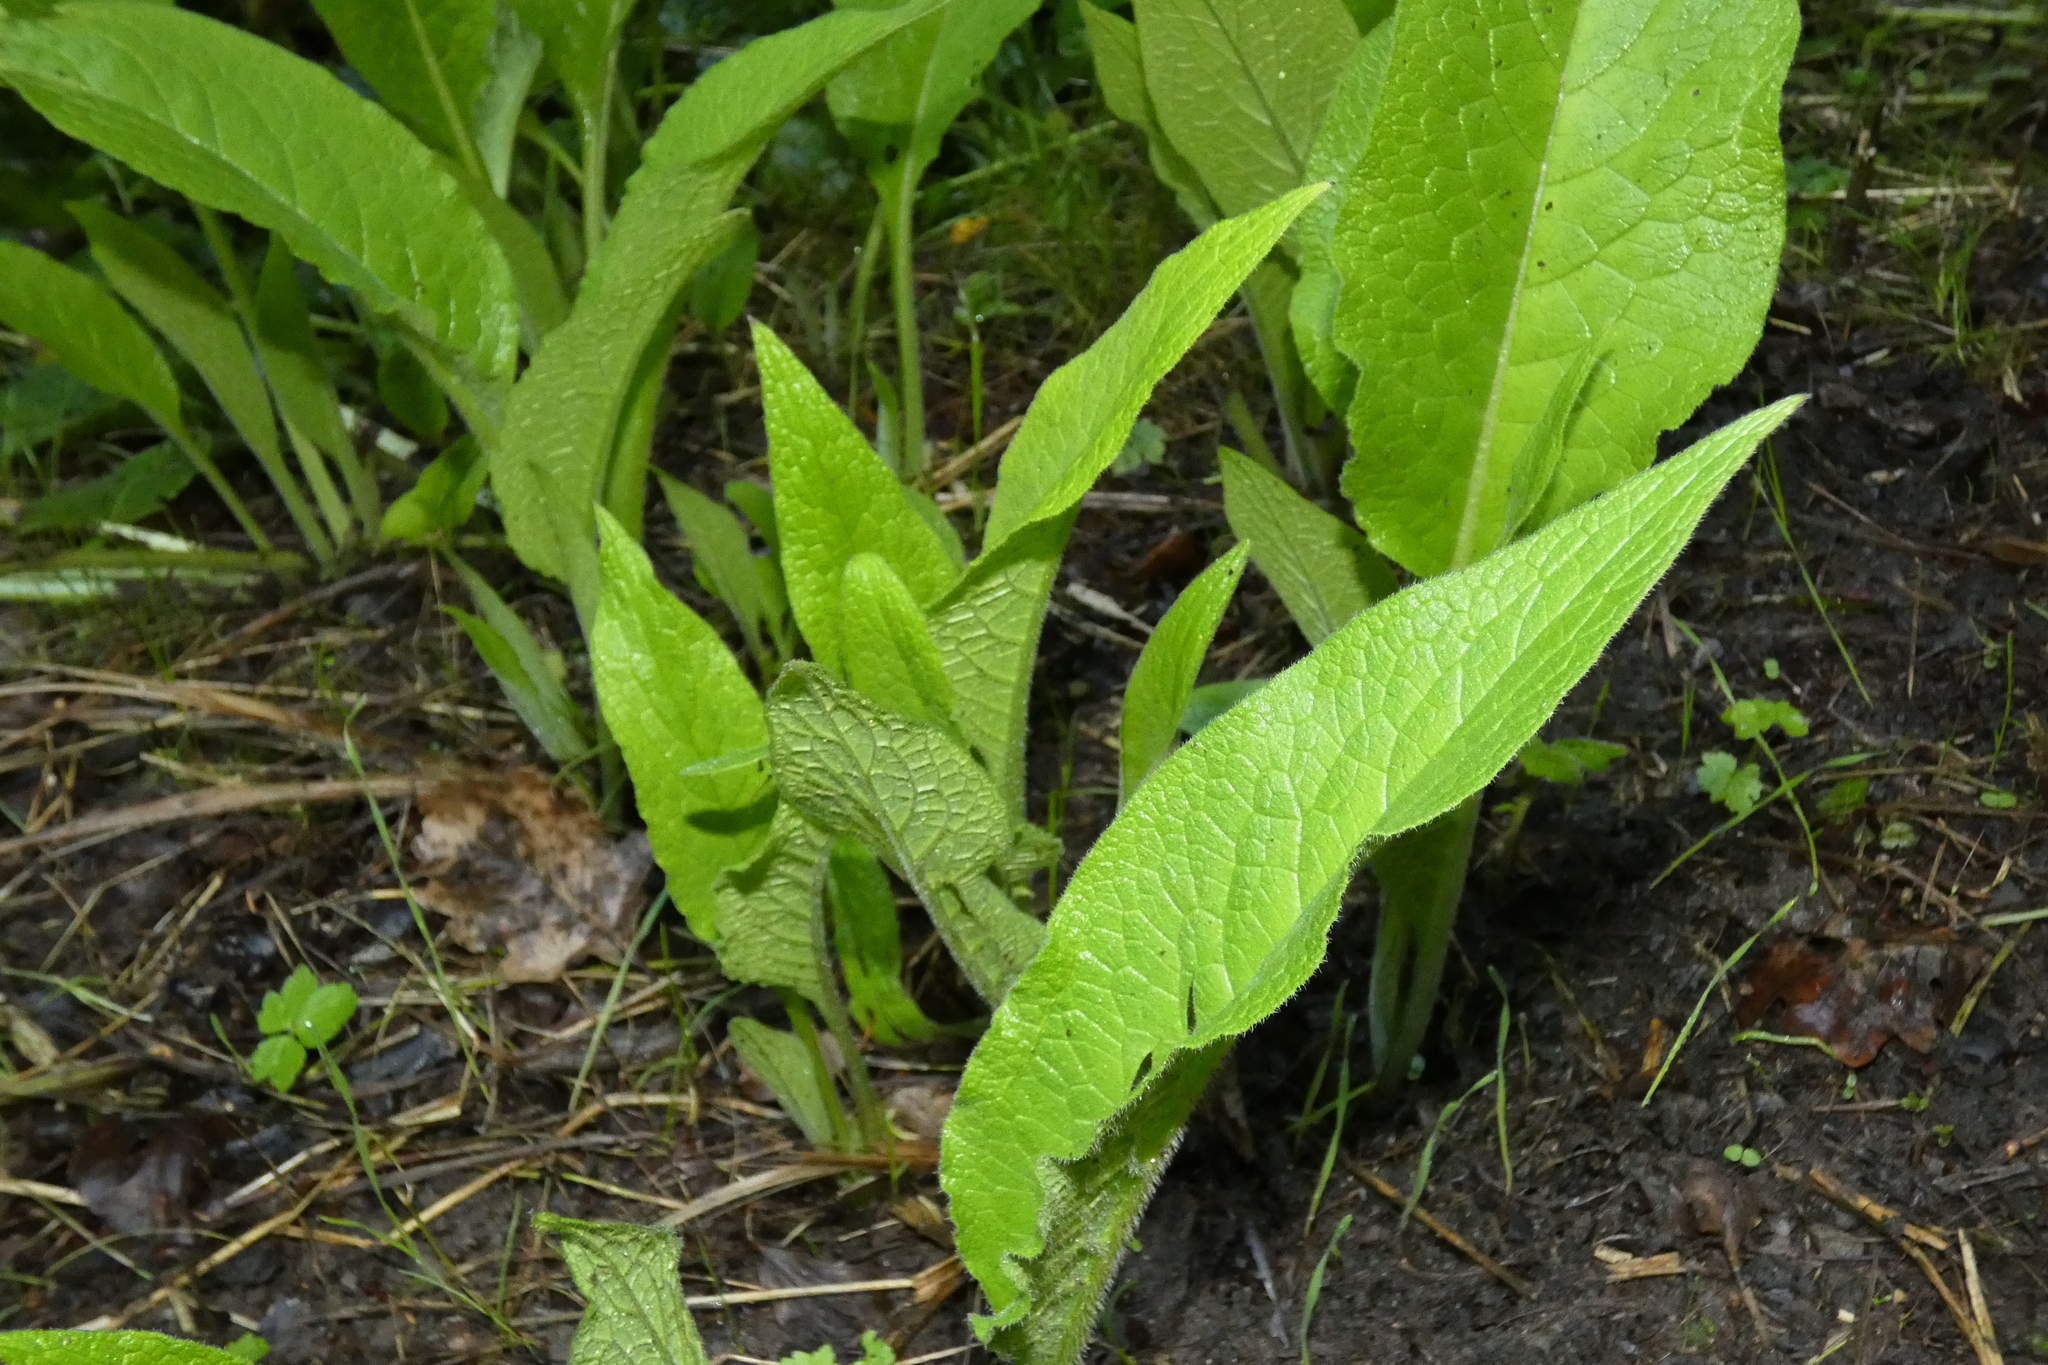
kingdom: Plantae
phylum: Tracheophyta
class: Magnoliopsida
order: Boraginales
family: Boraginaceae
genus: Symphytum
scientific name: Symphytum officinale
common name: Common comfrey
